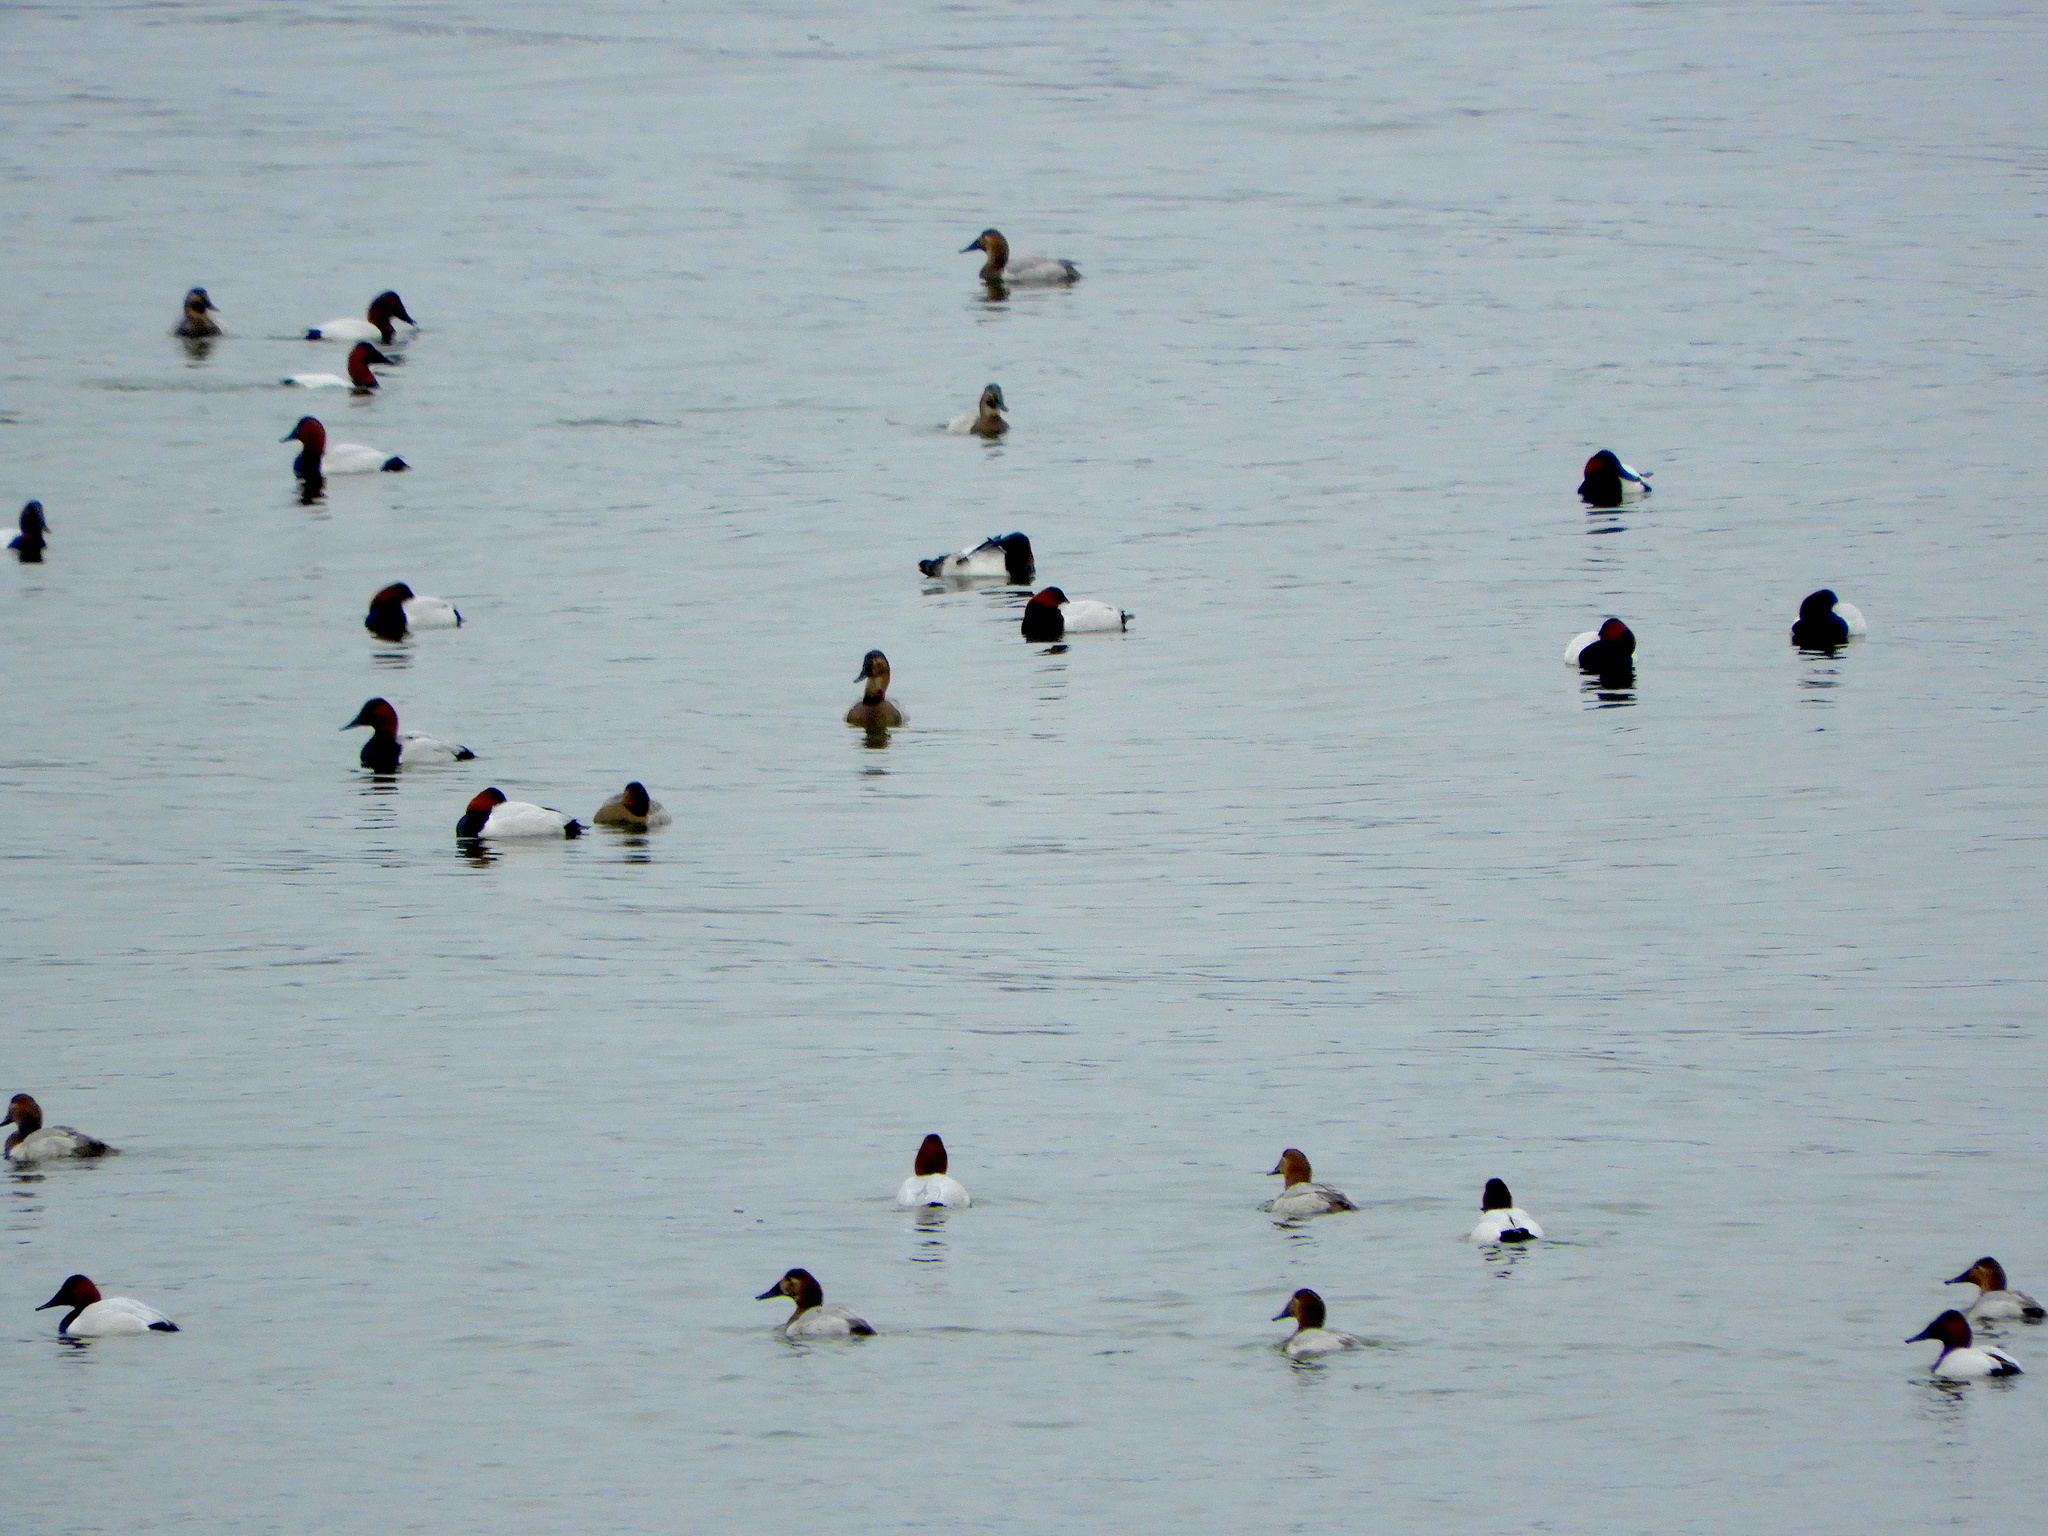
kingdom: Animalia
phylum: Chordata
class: Aves
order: Anseriformes
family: Anatidae
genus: Aythya
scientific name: Aythya valisineria
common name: Canvasback
